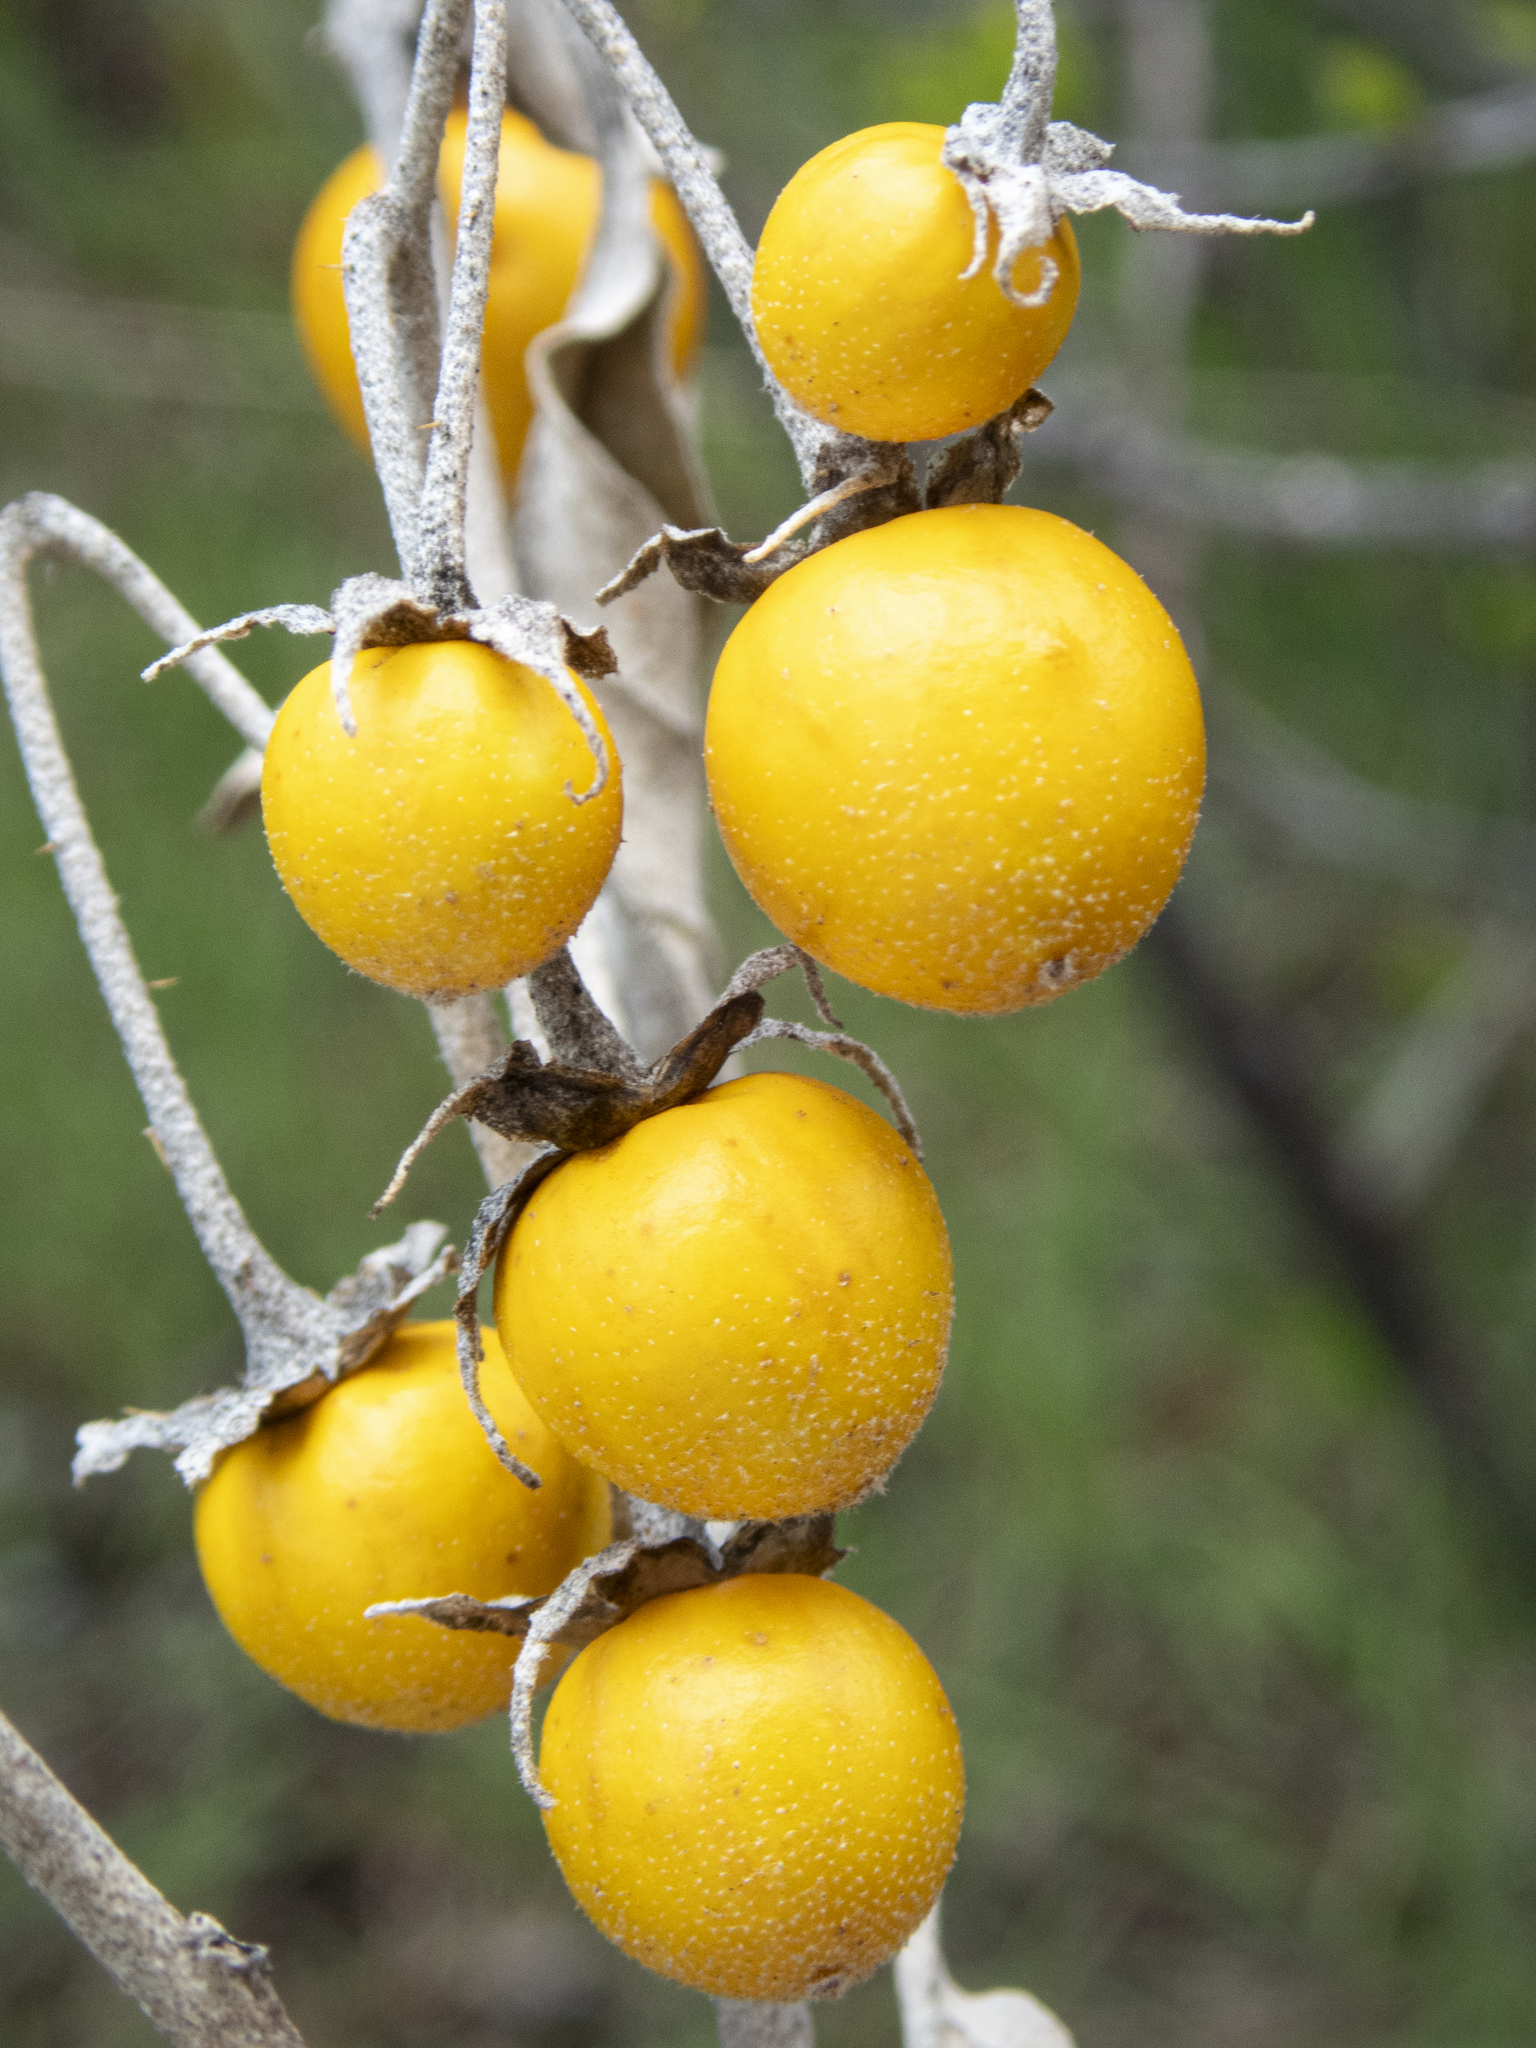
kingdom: Plantae
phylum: Tracheophyta
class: Magnoliopsida
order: Solanales
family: Solanaceae
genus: Solanum
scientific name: Solanum elaeagnifolium
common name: Silverleaf nightshade
